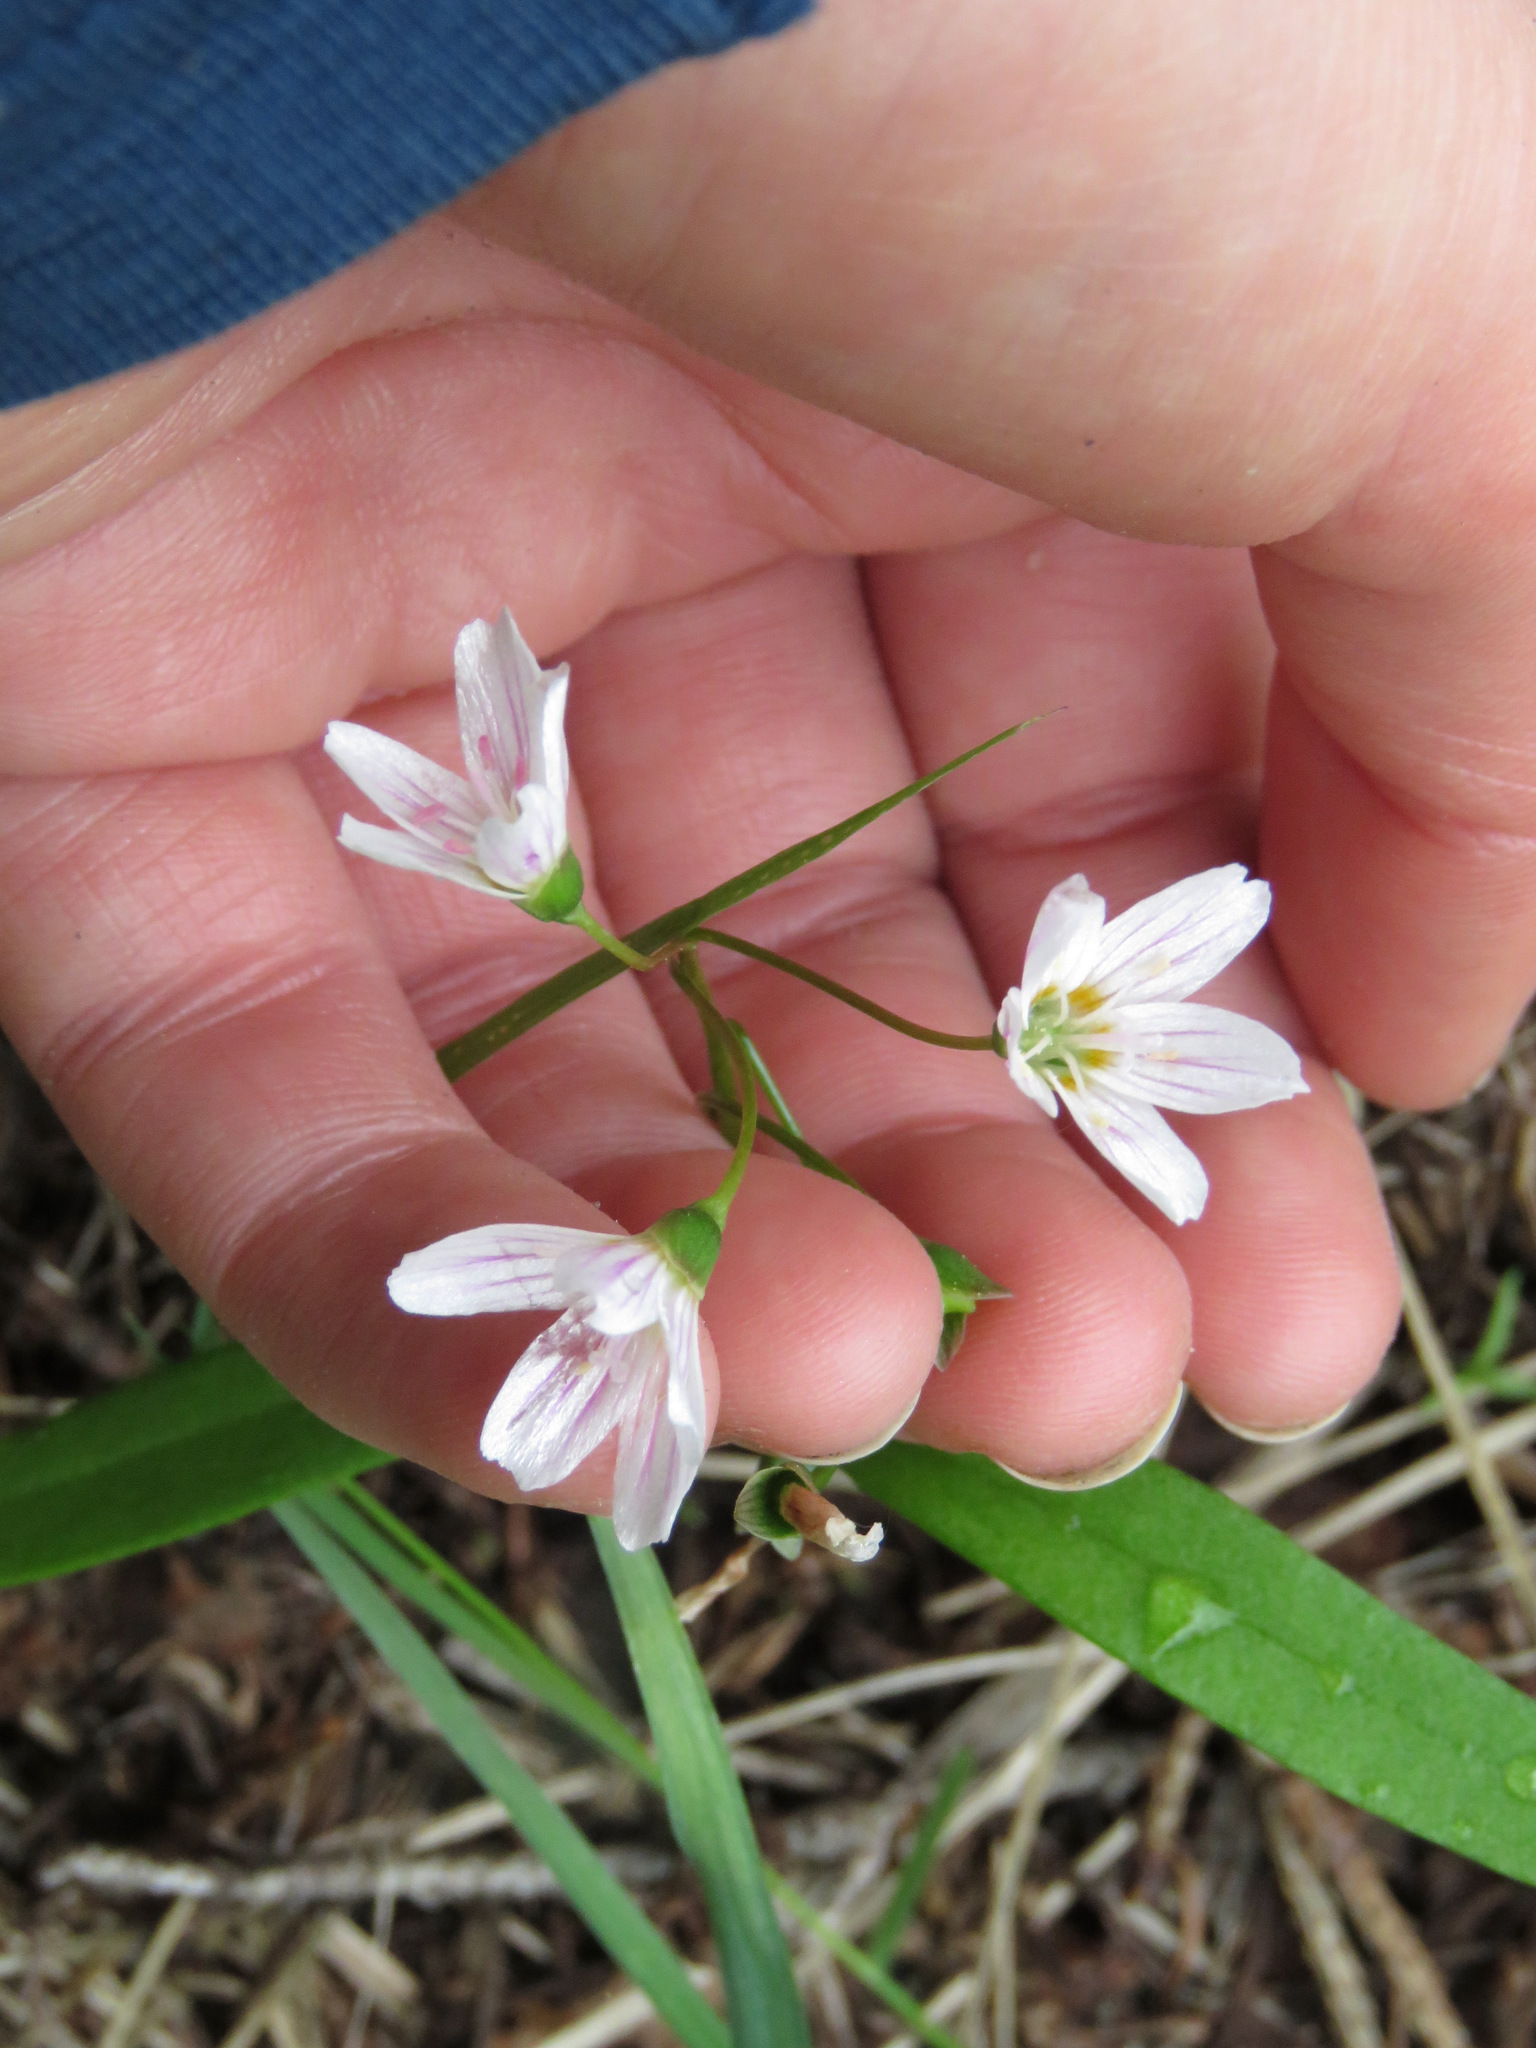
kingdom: Plantae
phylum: Tracheophyta
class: Magnoliopsida
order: Caryophyllales
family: Montiaceae
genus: Claytonia
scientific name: Claytonia lanceolata
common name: Western spring-beauty
